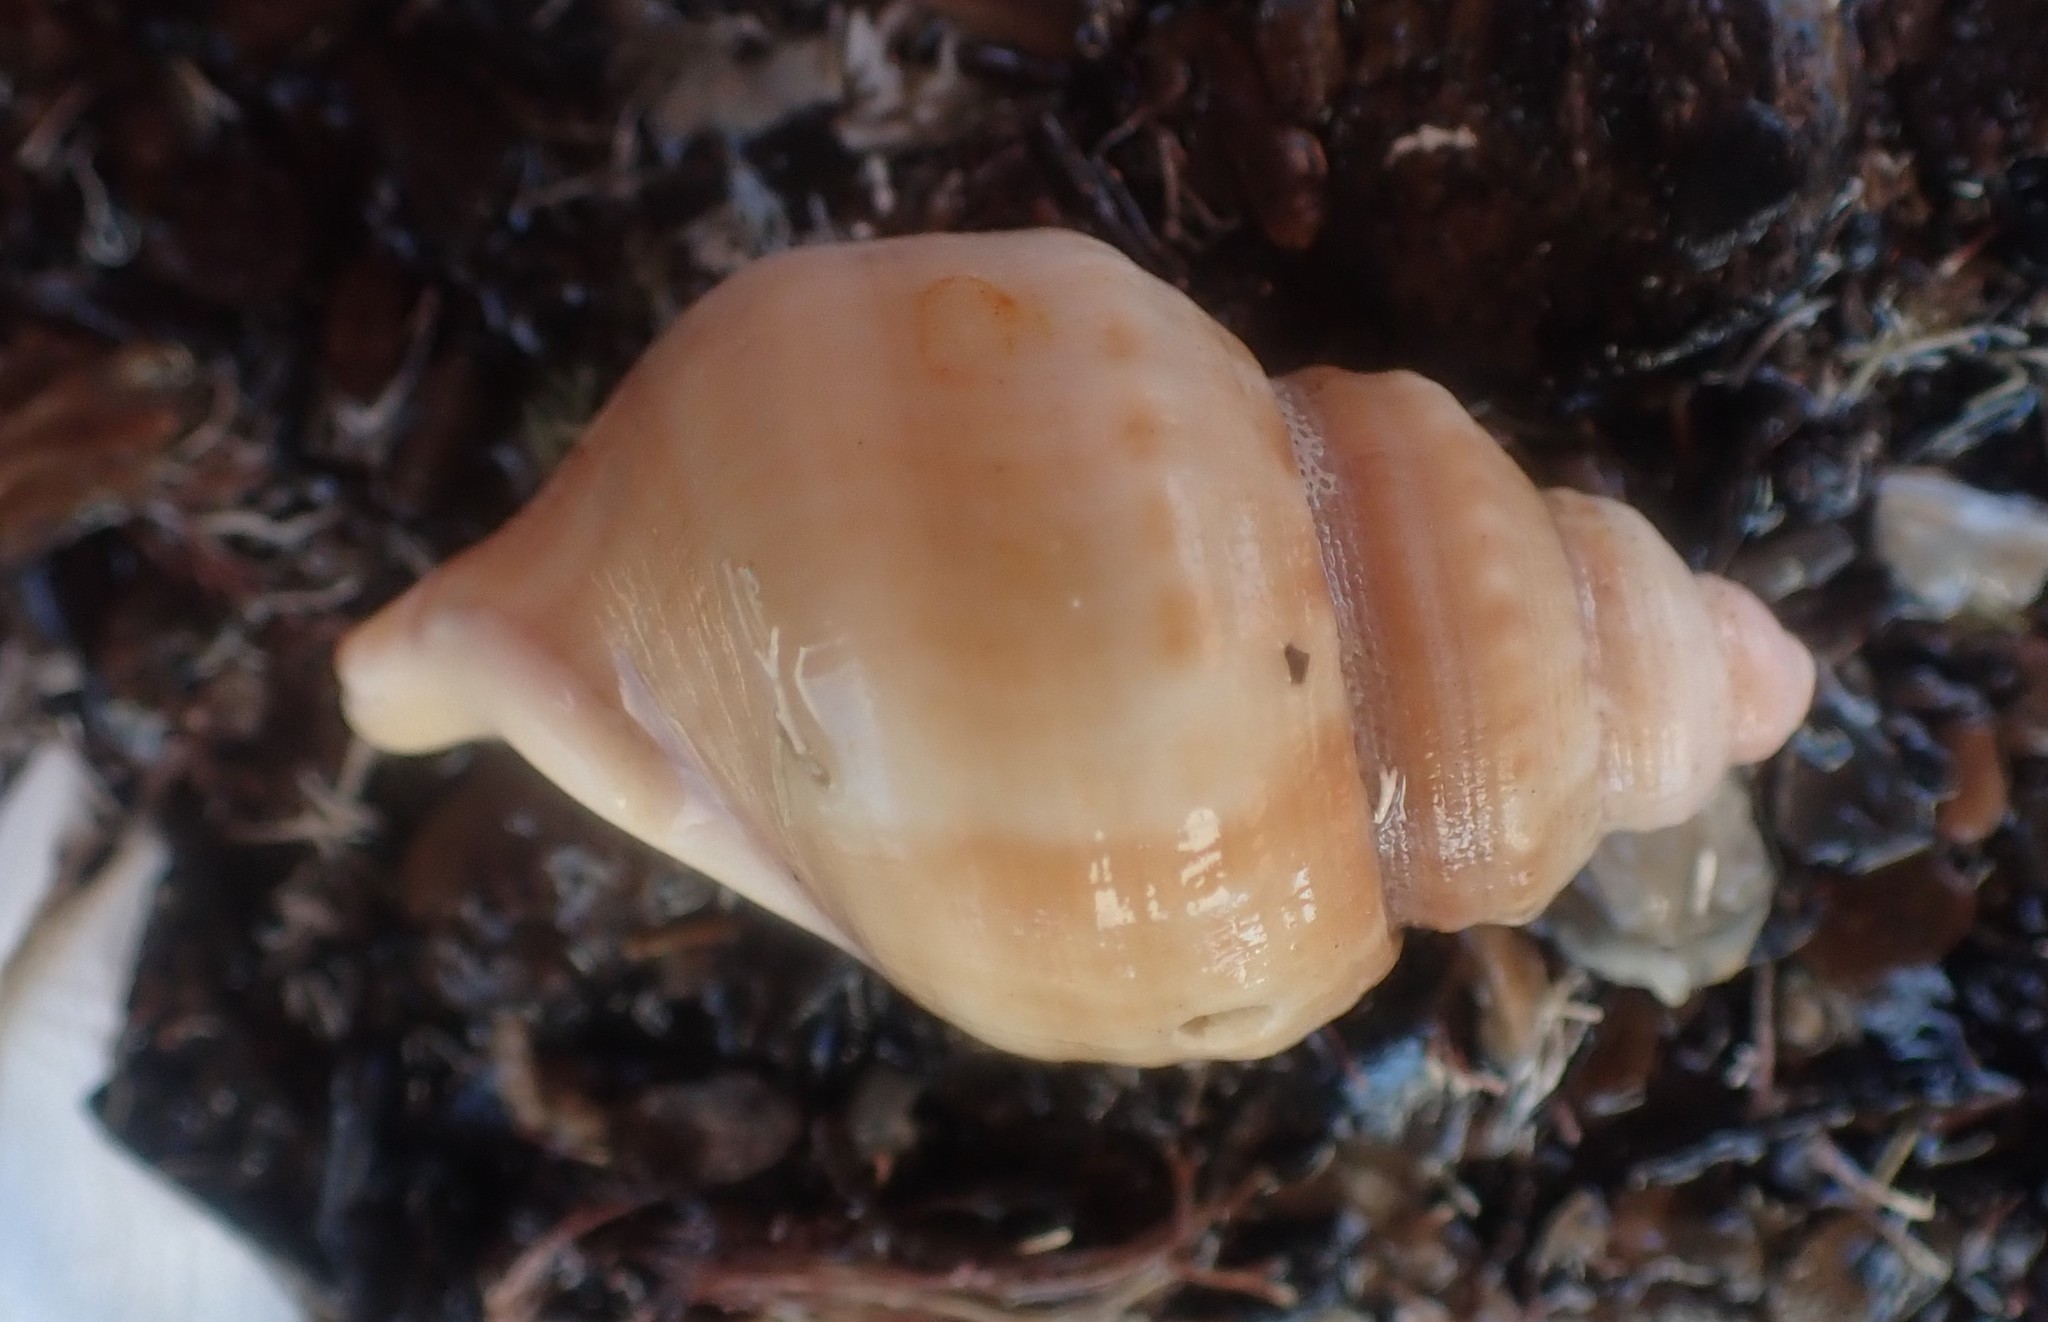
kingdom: Animalia
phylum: Mollusca
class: Gastropoda
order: Littorinimorpha
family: Struthiolariidae
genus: Pelicaria
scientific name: Pelicaria vermis
